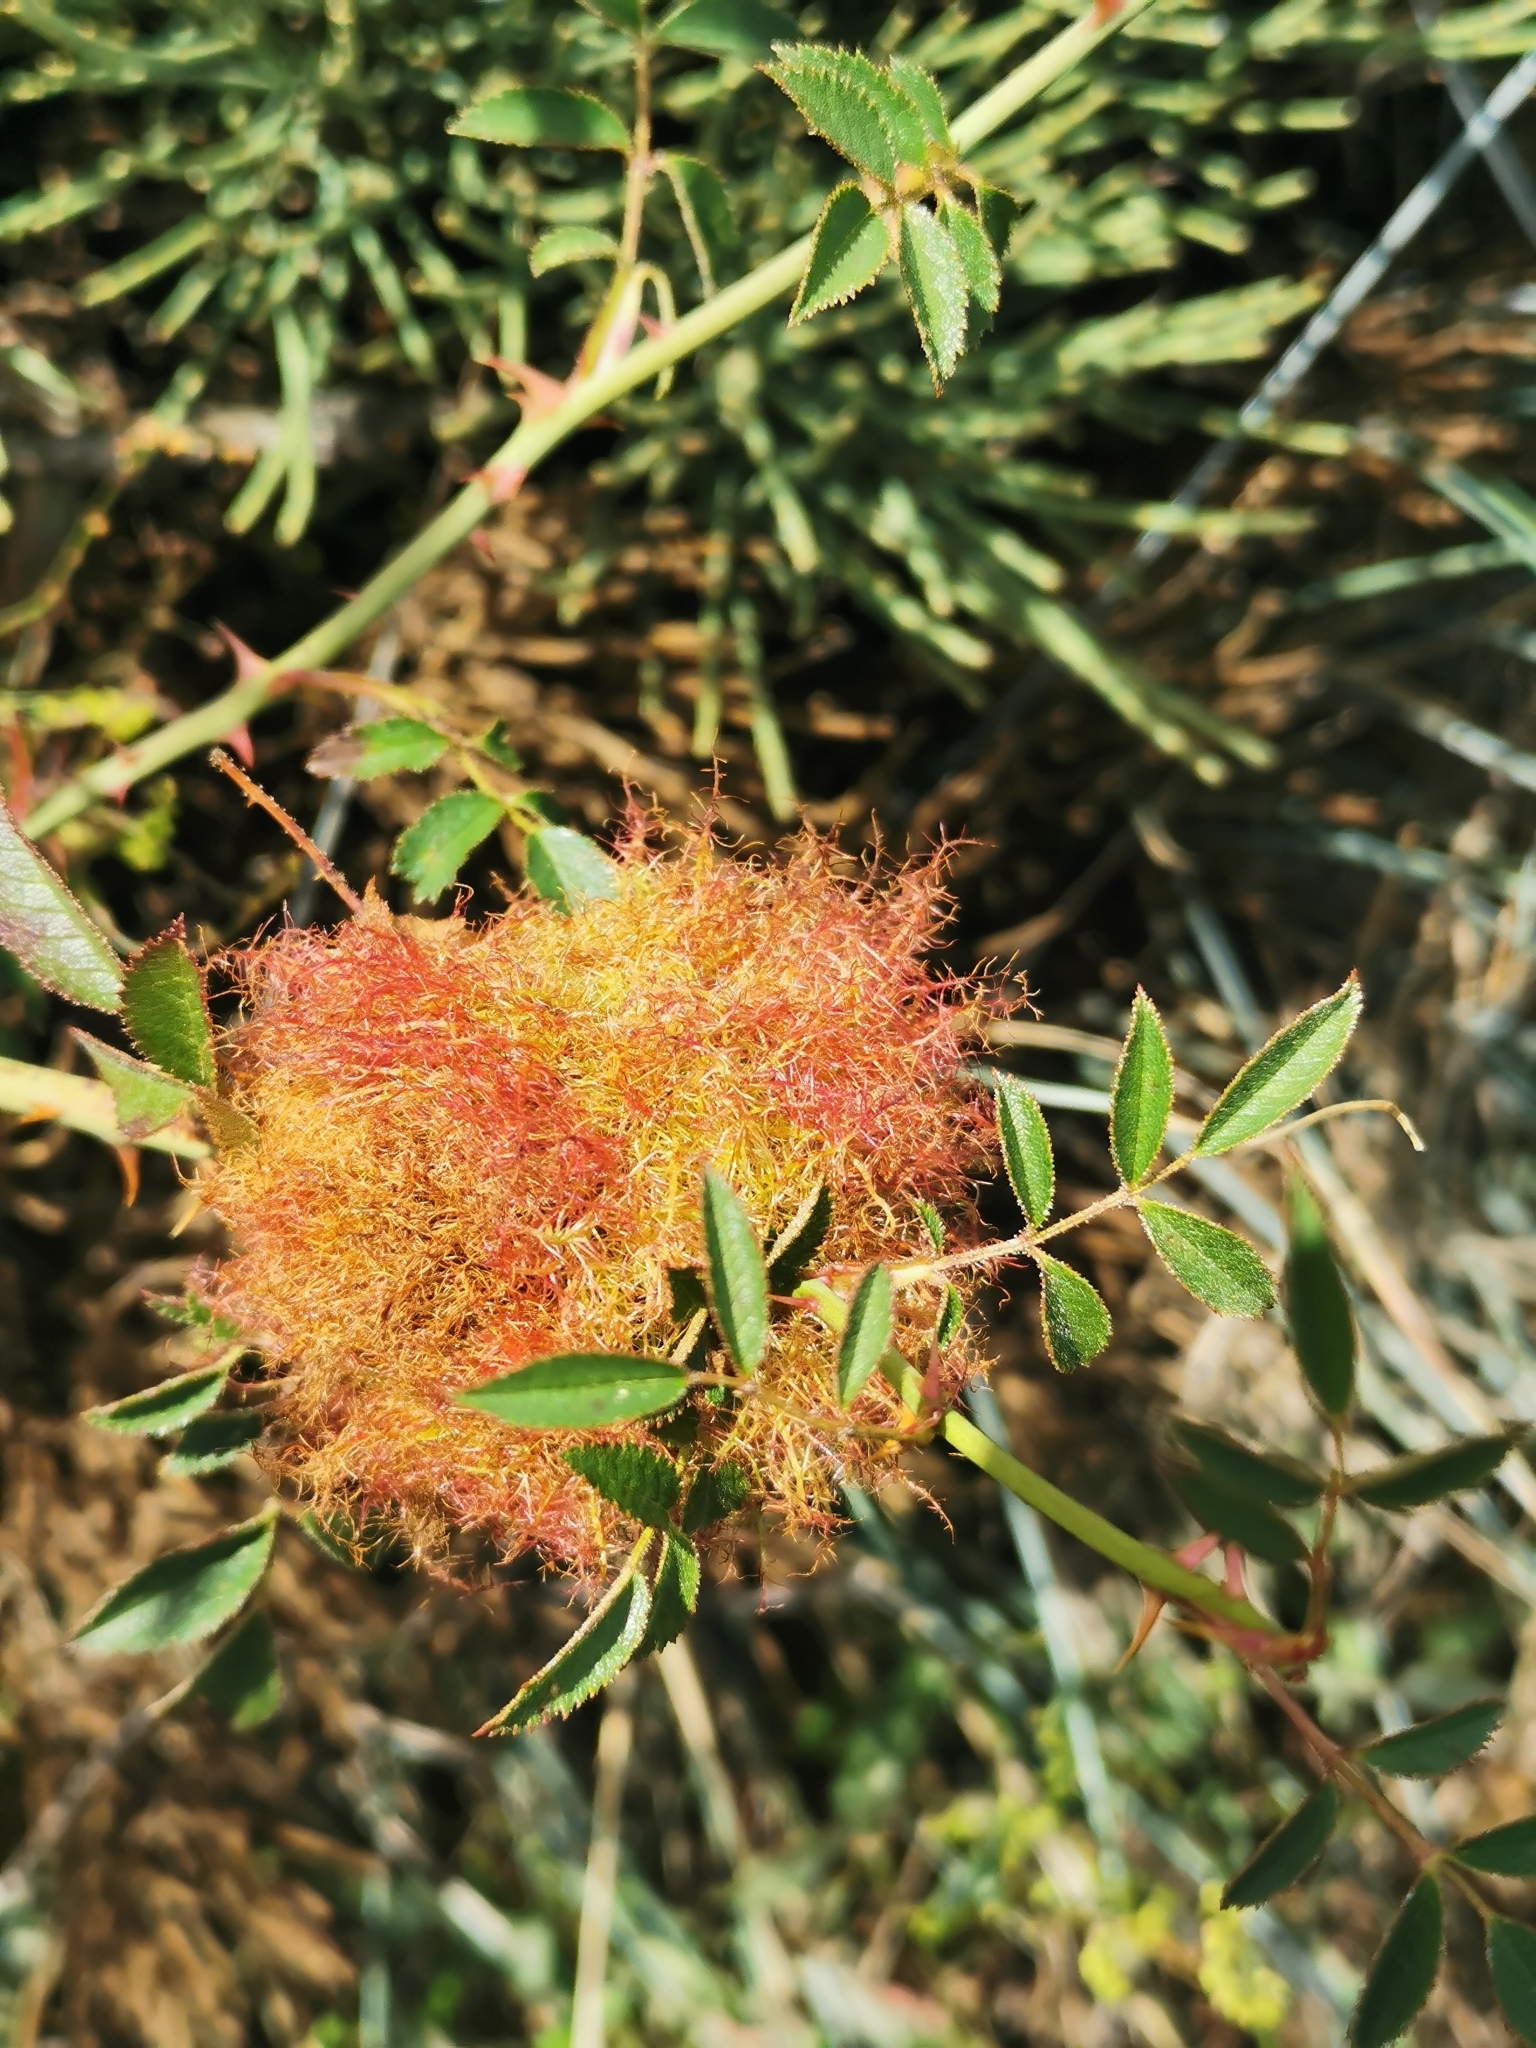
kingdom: Animalia
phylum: Arthropoda
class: Insecta
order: Hymenoptera
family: Cynipidae
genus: Diplolepis
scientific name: Diplolepis rosae
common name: Bedeguar gall
